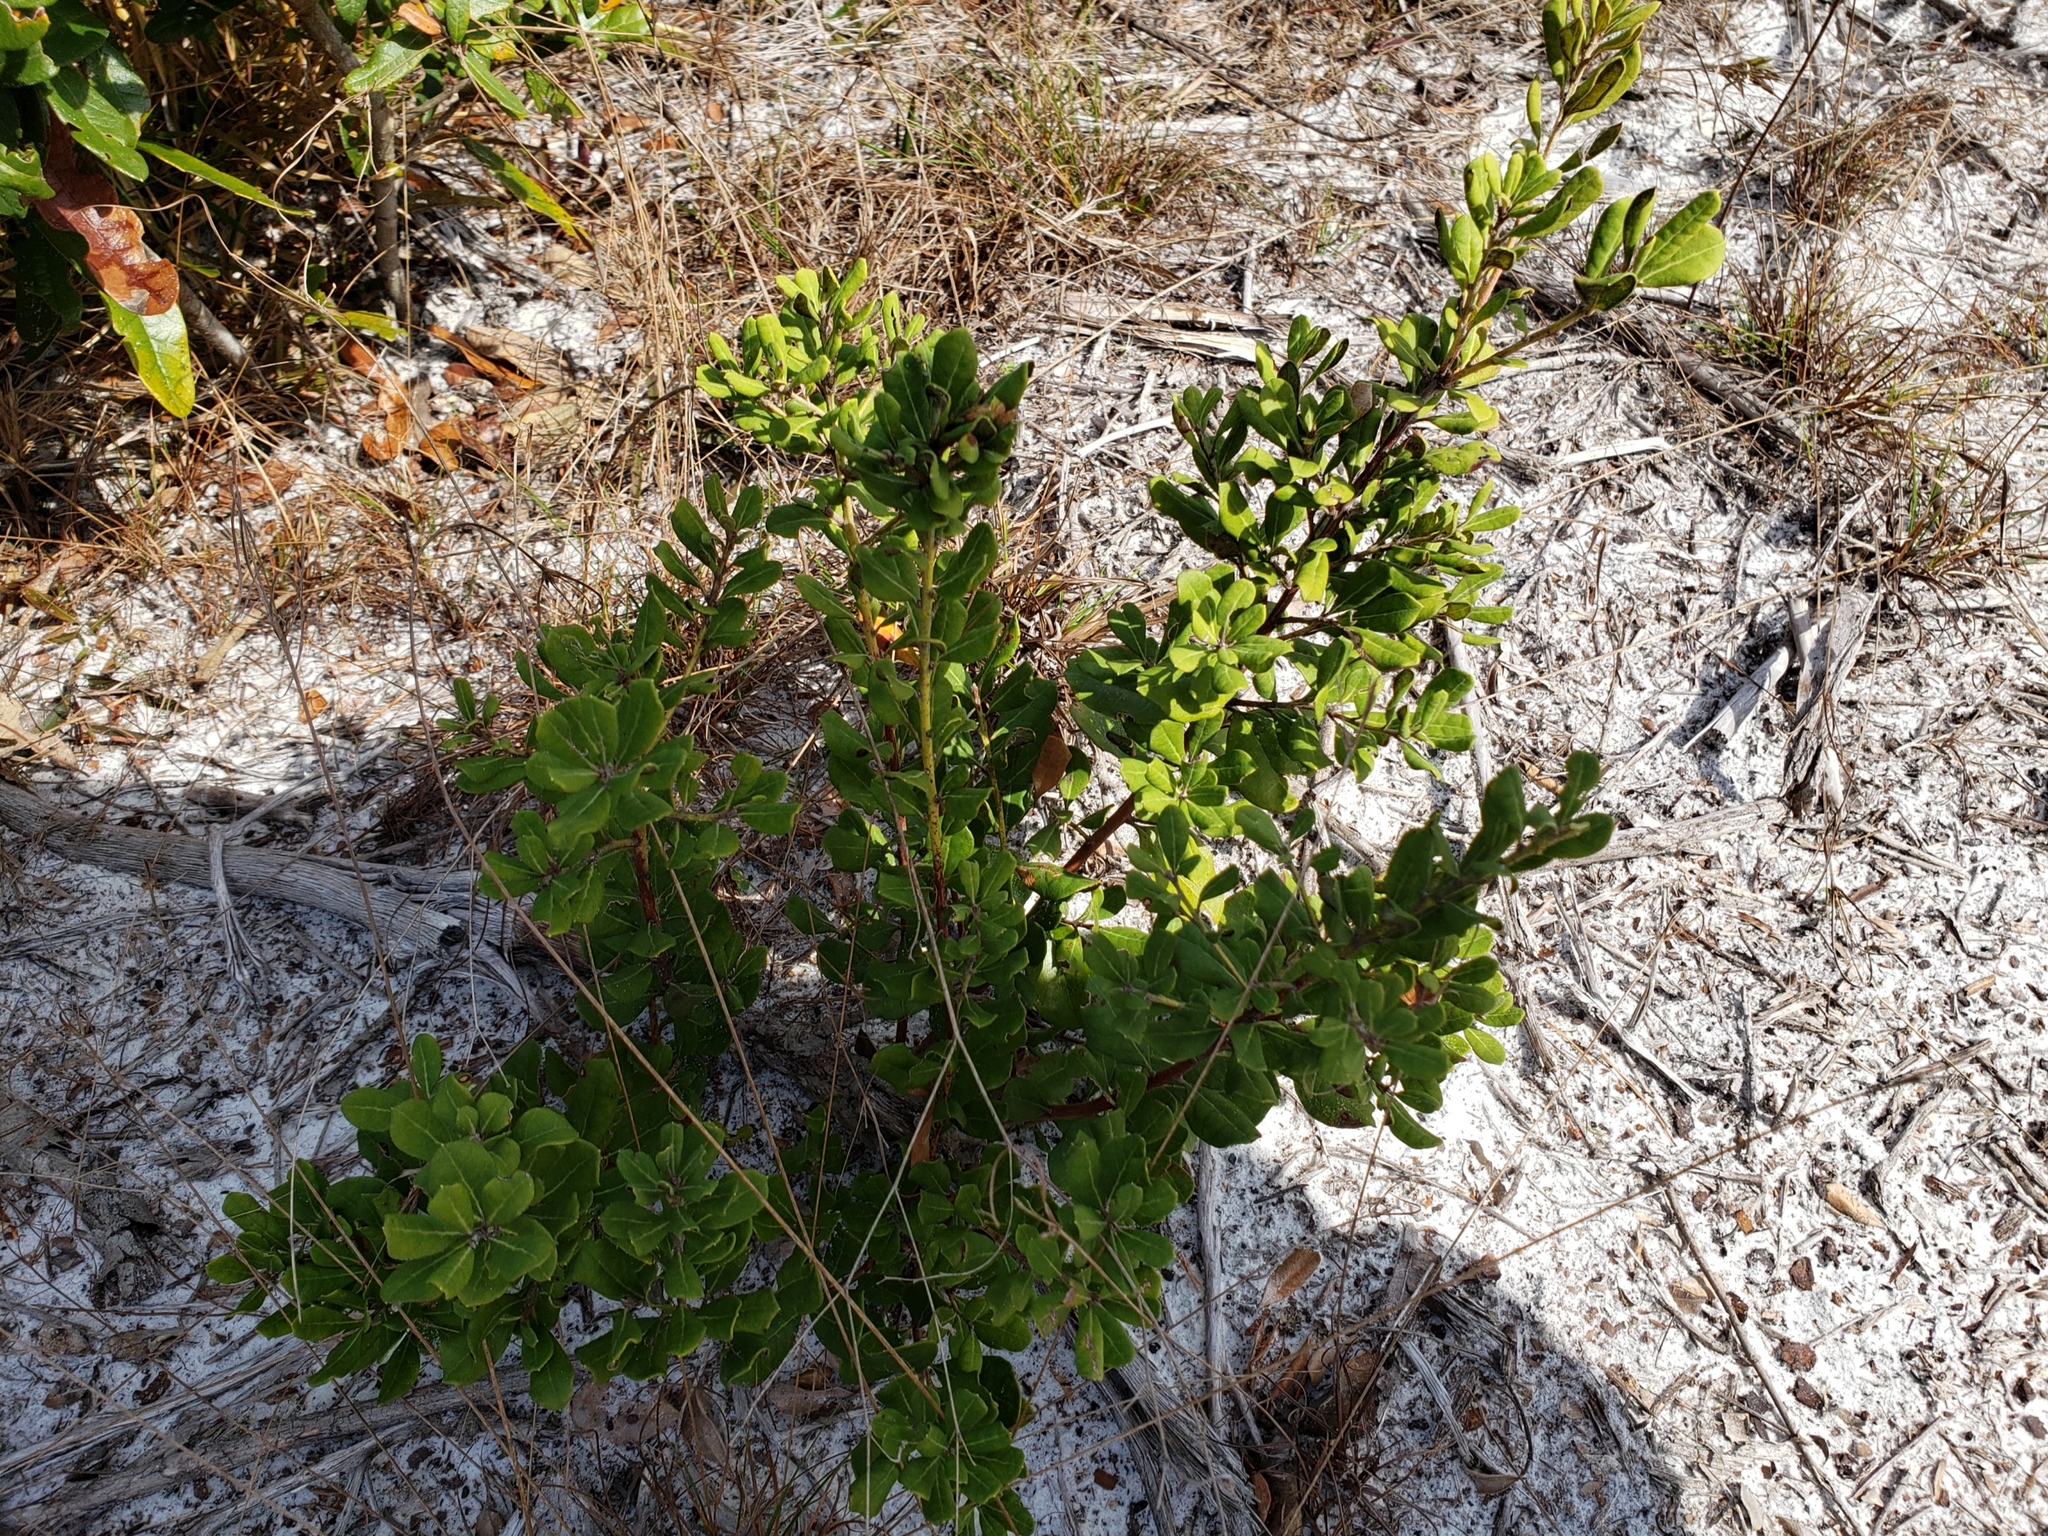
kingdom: Plantae
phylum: Tracheophyta
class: Magnoliopsida
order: Ericales
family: Ericaceae
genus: Lyonia
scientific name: Lyonia ferruginea
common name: Rusty lyonia
